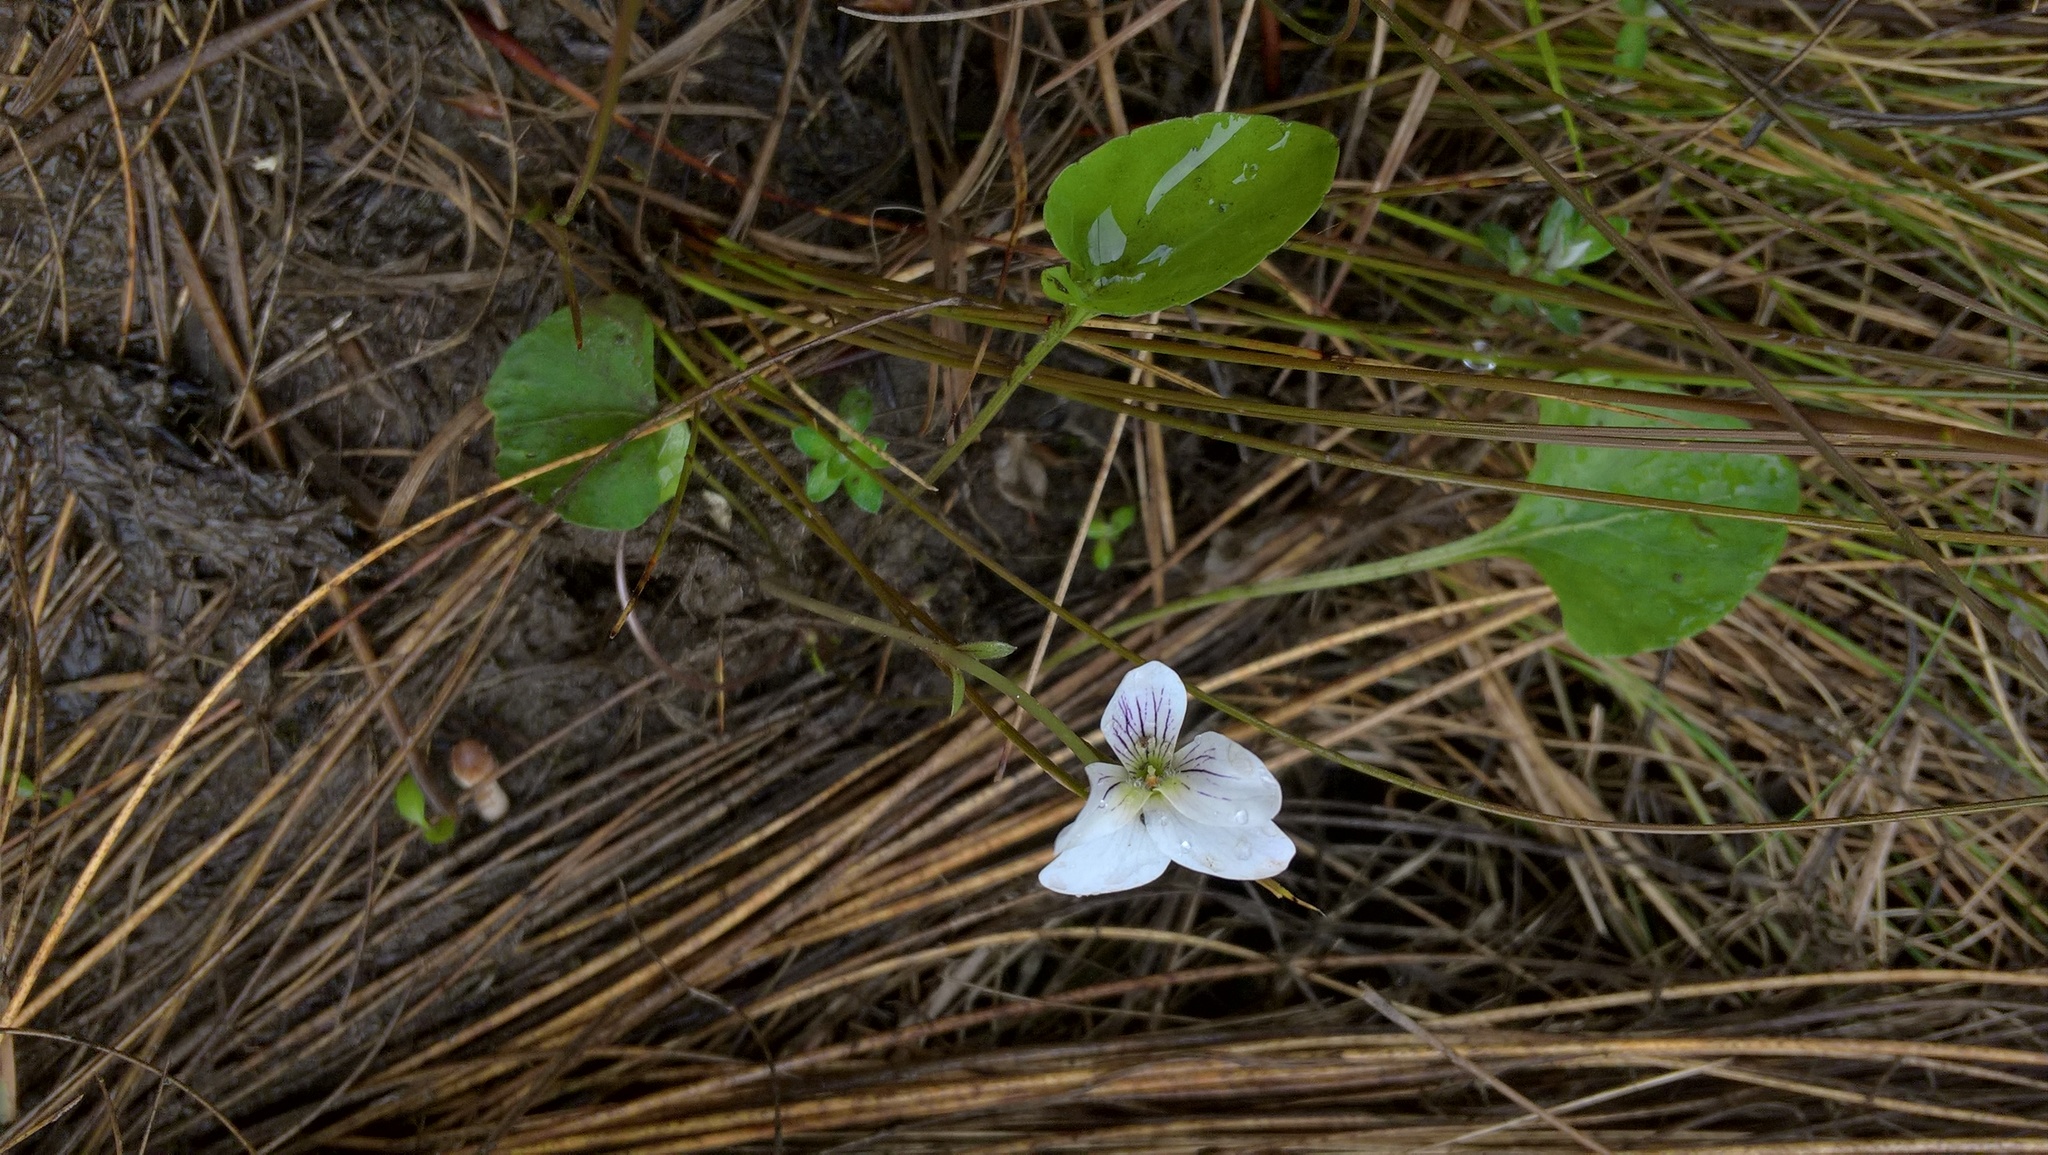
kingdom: Plantae
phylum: Tracheophyta
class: Magnoliopsida
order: Malpighiales
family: Violaceae
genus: Viola
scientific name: Viola cunninghamii
